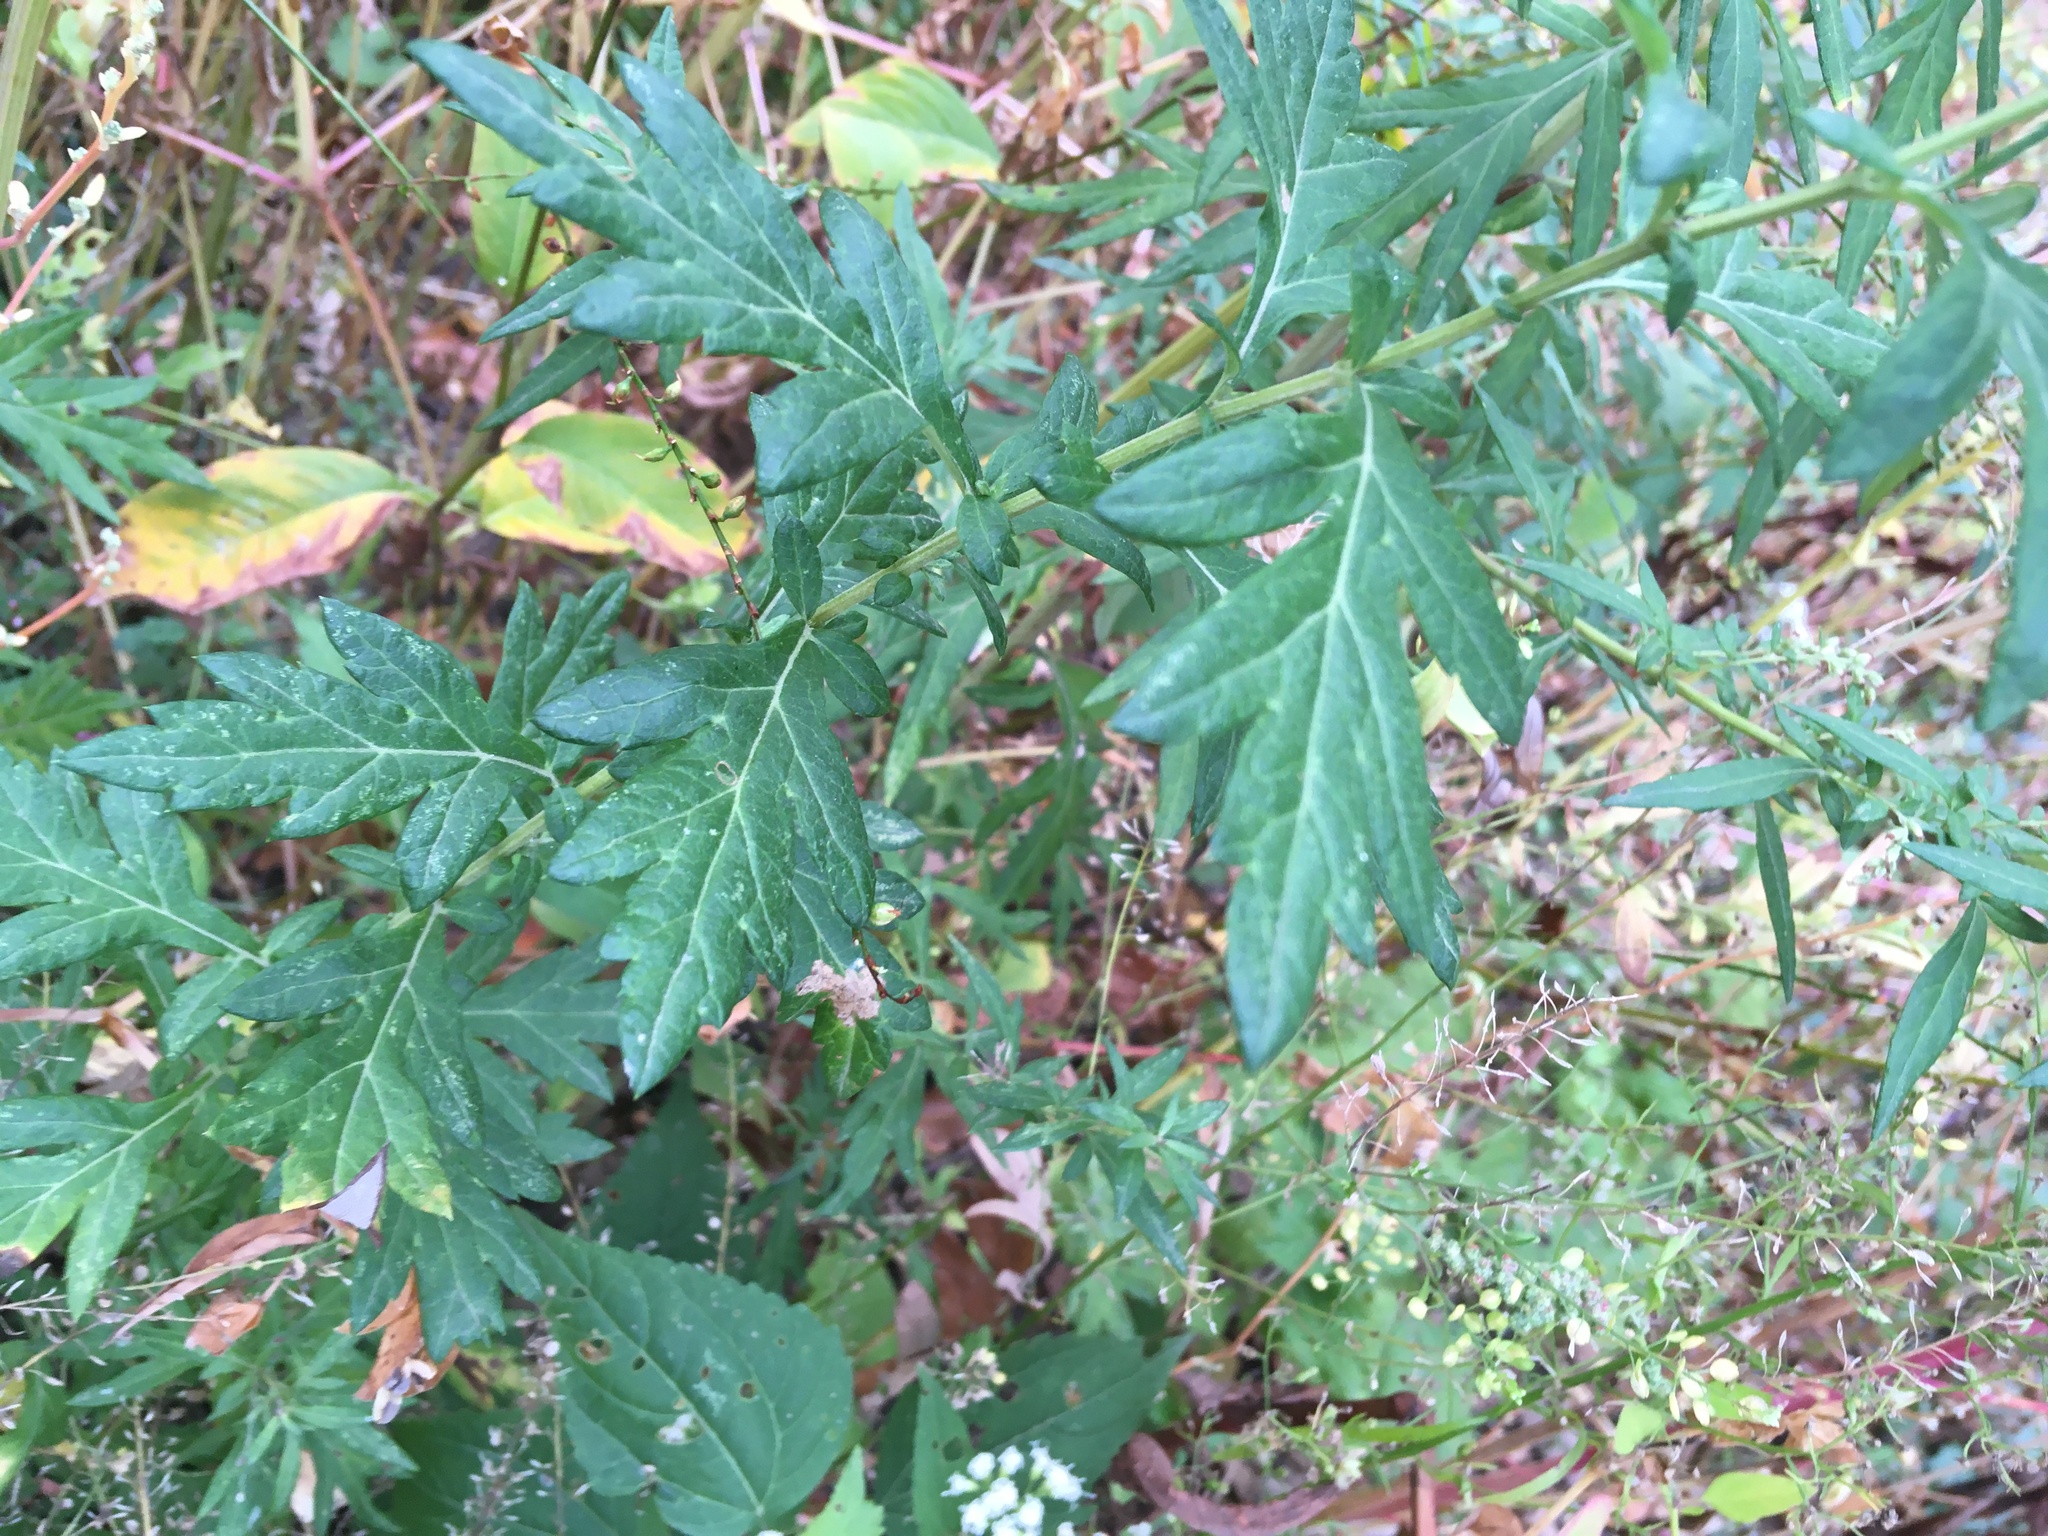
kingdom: Plantae
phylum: Tracheophyta
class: Magnoliopsida
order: Asterales
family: Asteraceae
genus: Artemisia
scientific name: Artemisia vulgaris
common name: Mugwort
